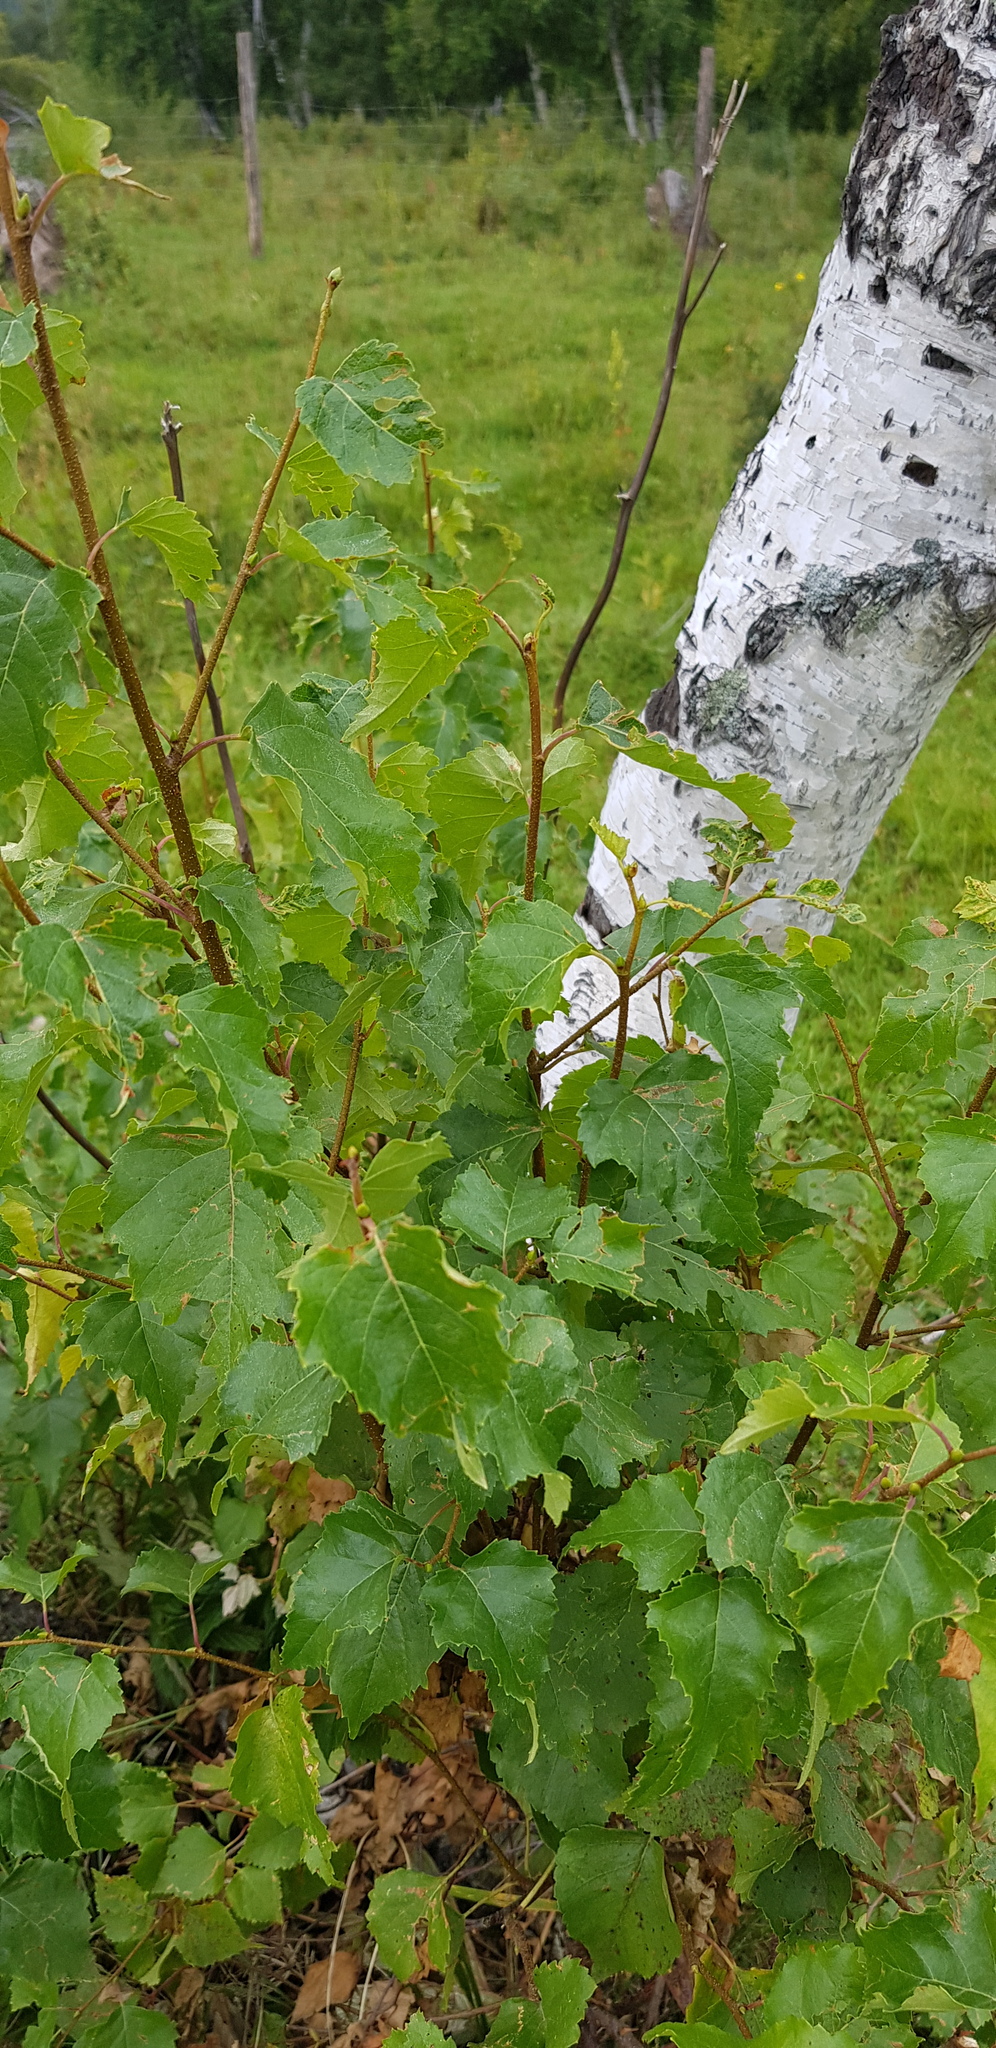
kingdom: Plantae
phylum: Tracheophyta
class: Magnoliopsida
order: Fagales
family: Betulaceae
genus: Betula
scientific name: Betula pendula
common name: Silver birch
